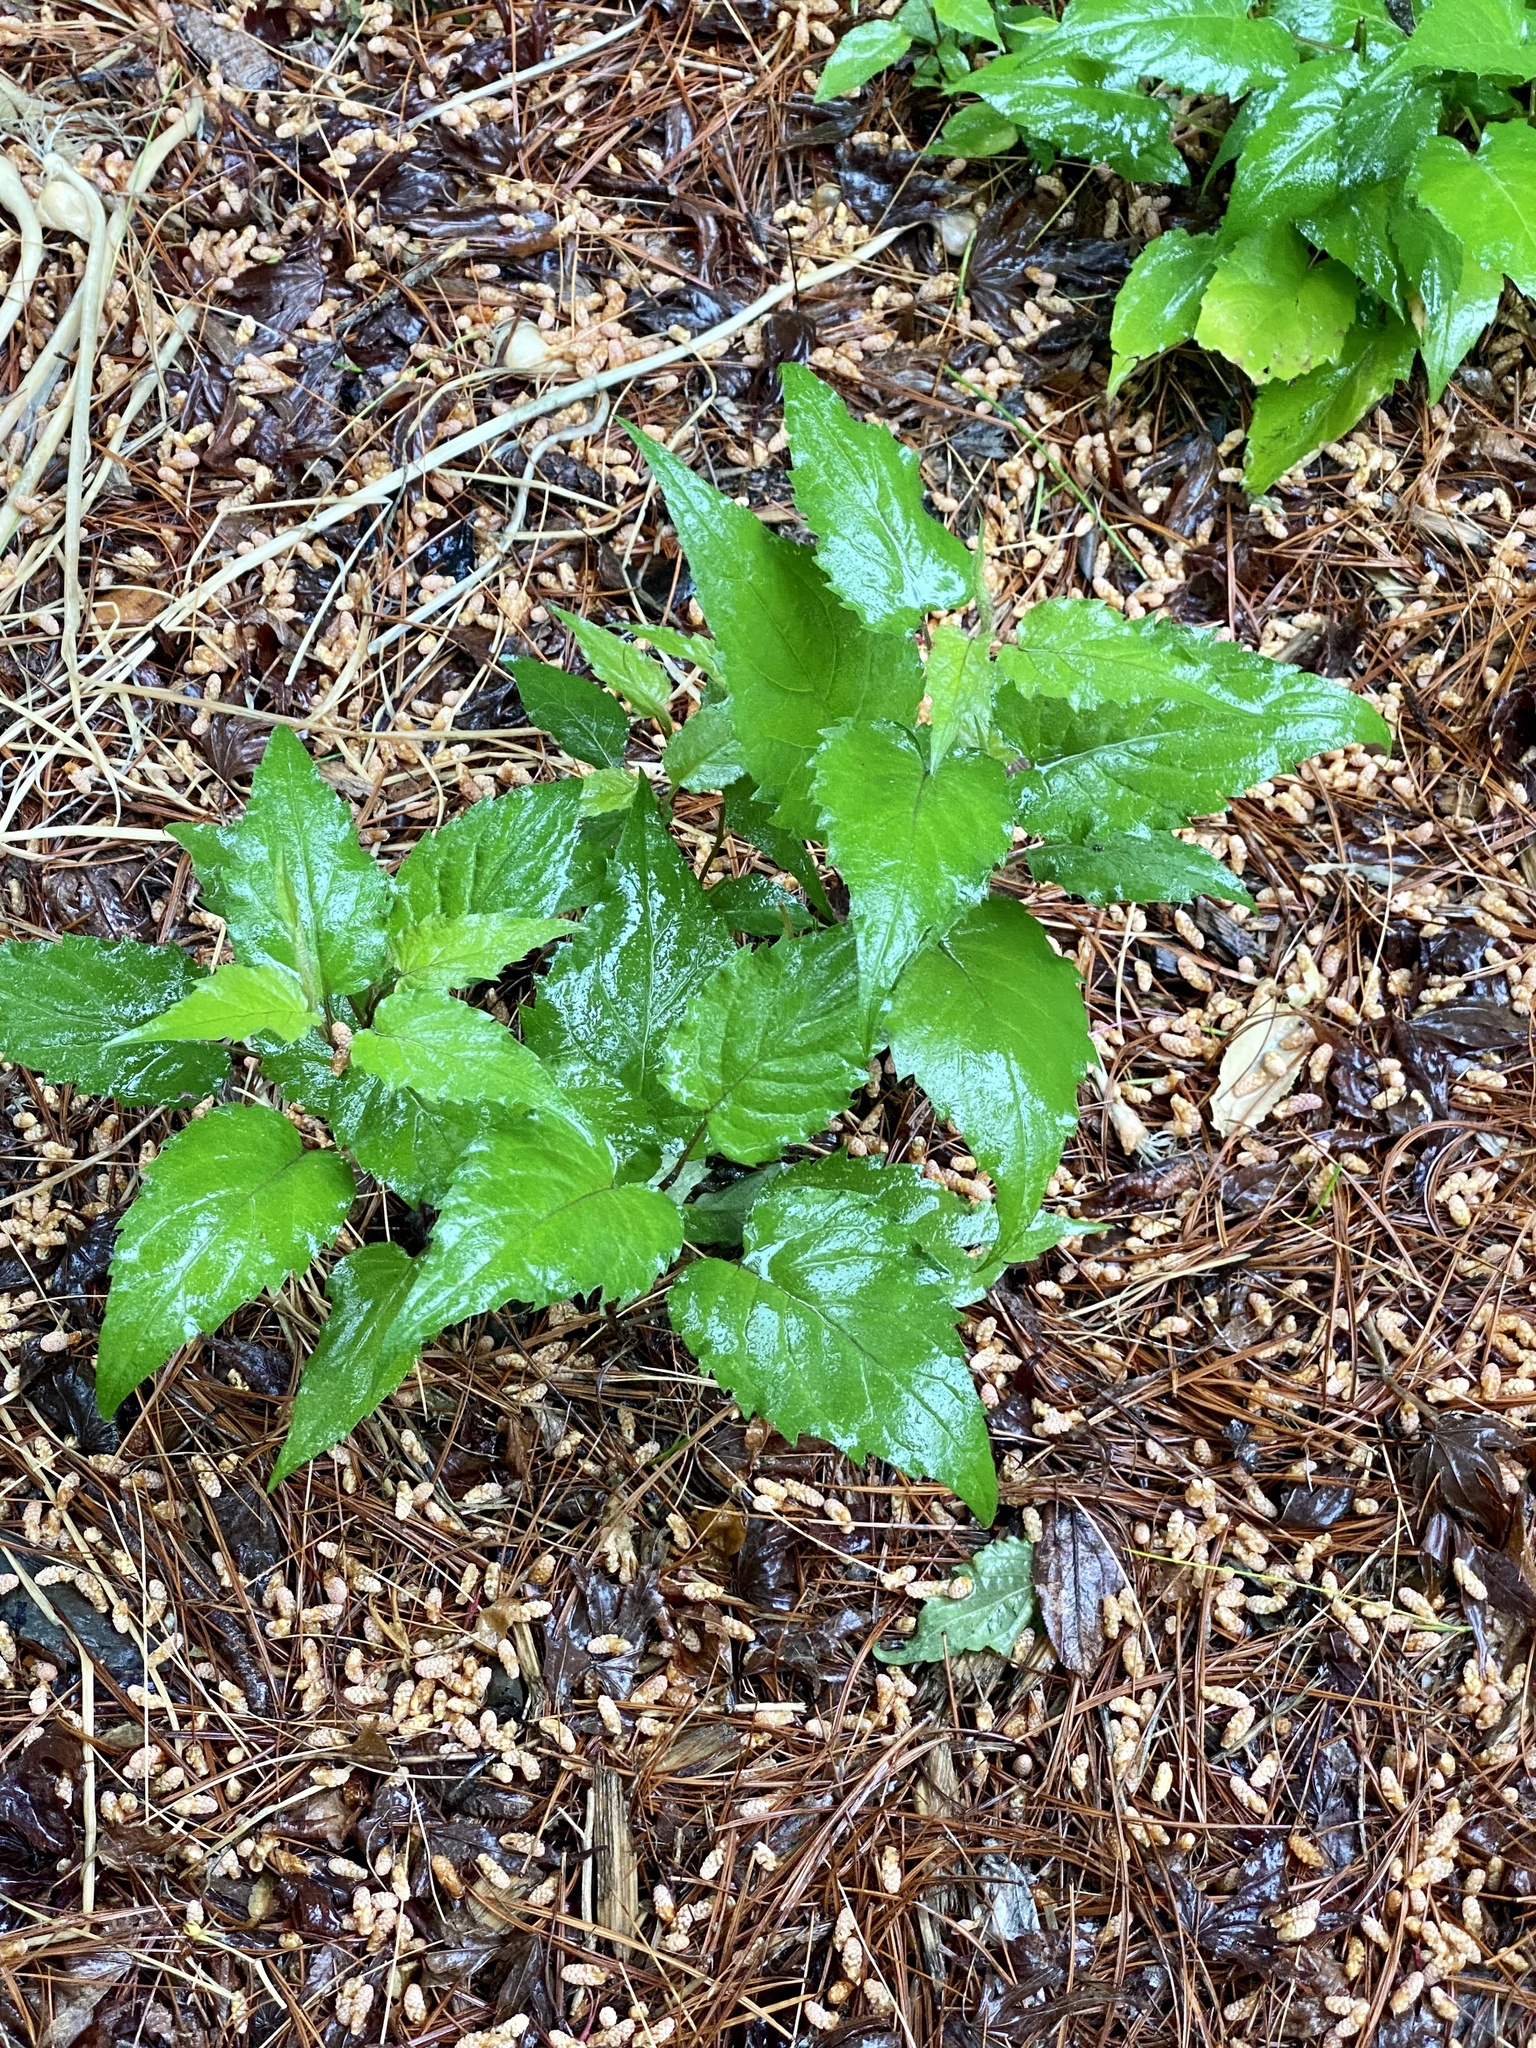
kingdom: Plantae
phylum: Tracheophyta
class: Magnoliopsida
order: Asterales
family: Asteraceae
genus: Eurybia
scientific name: Eurybia divaricata
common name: White wood aster
